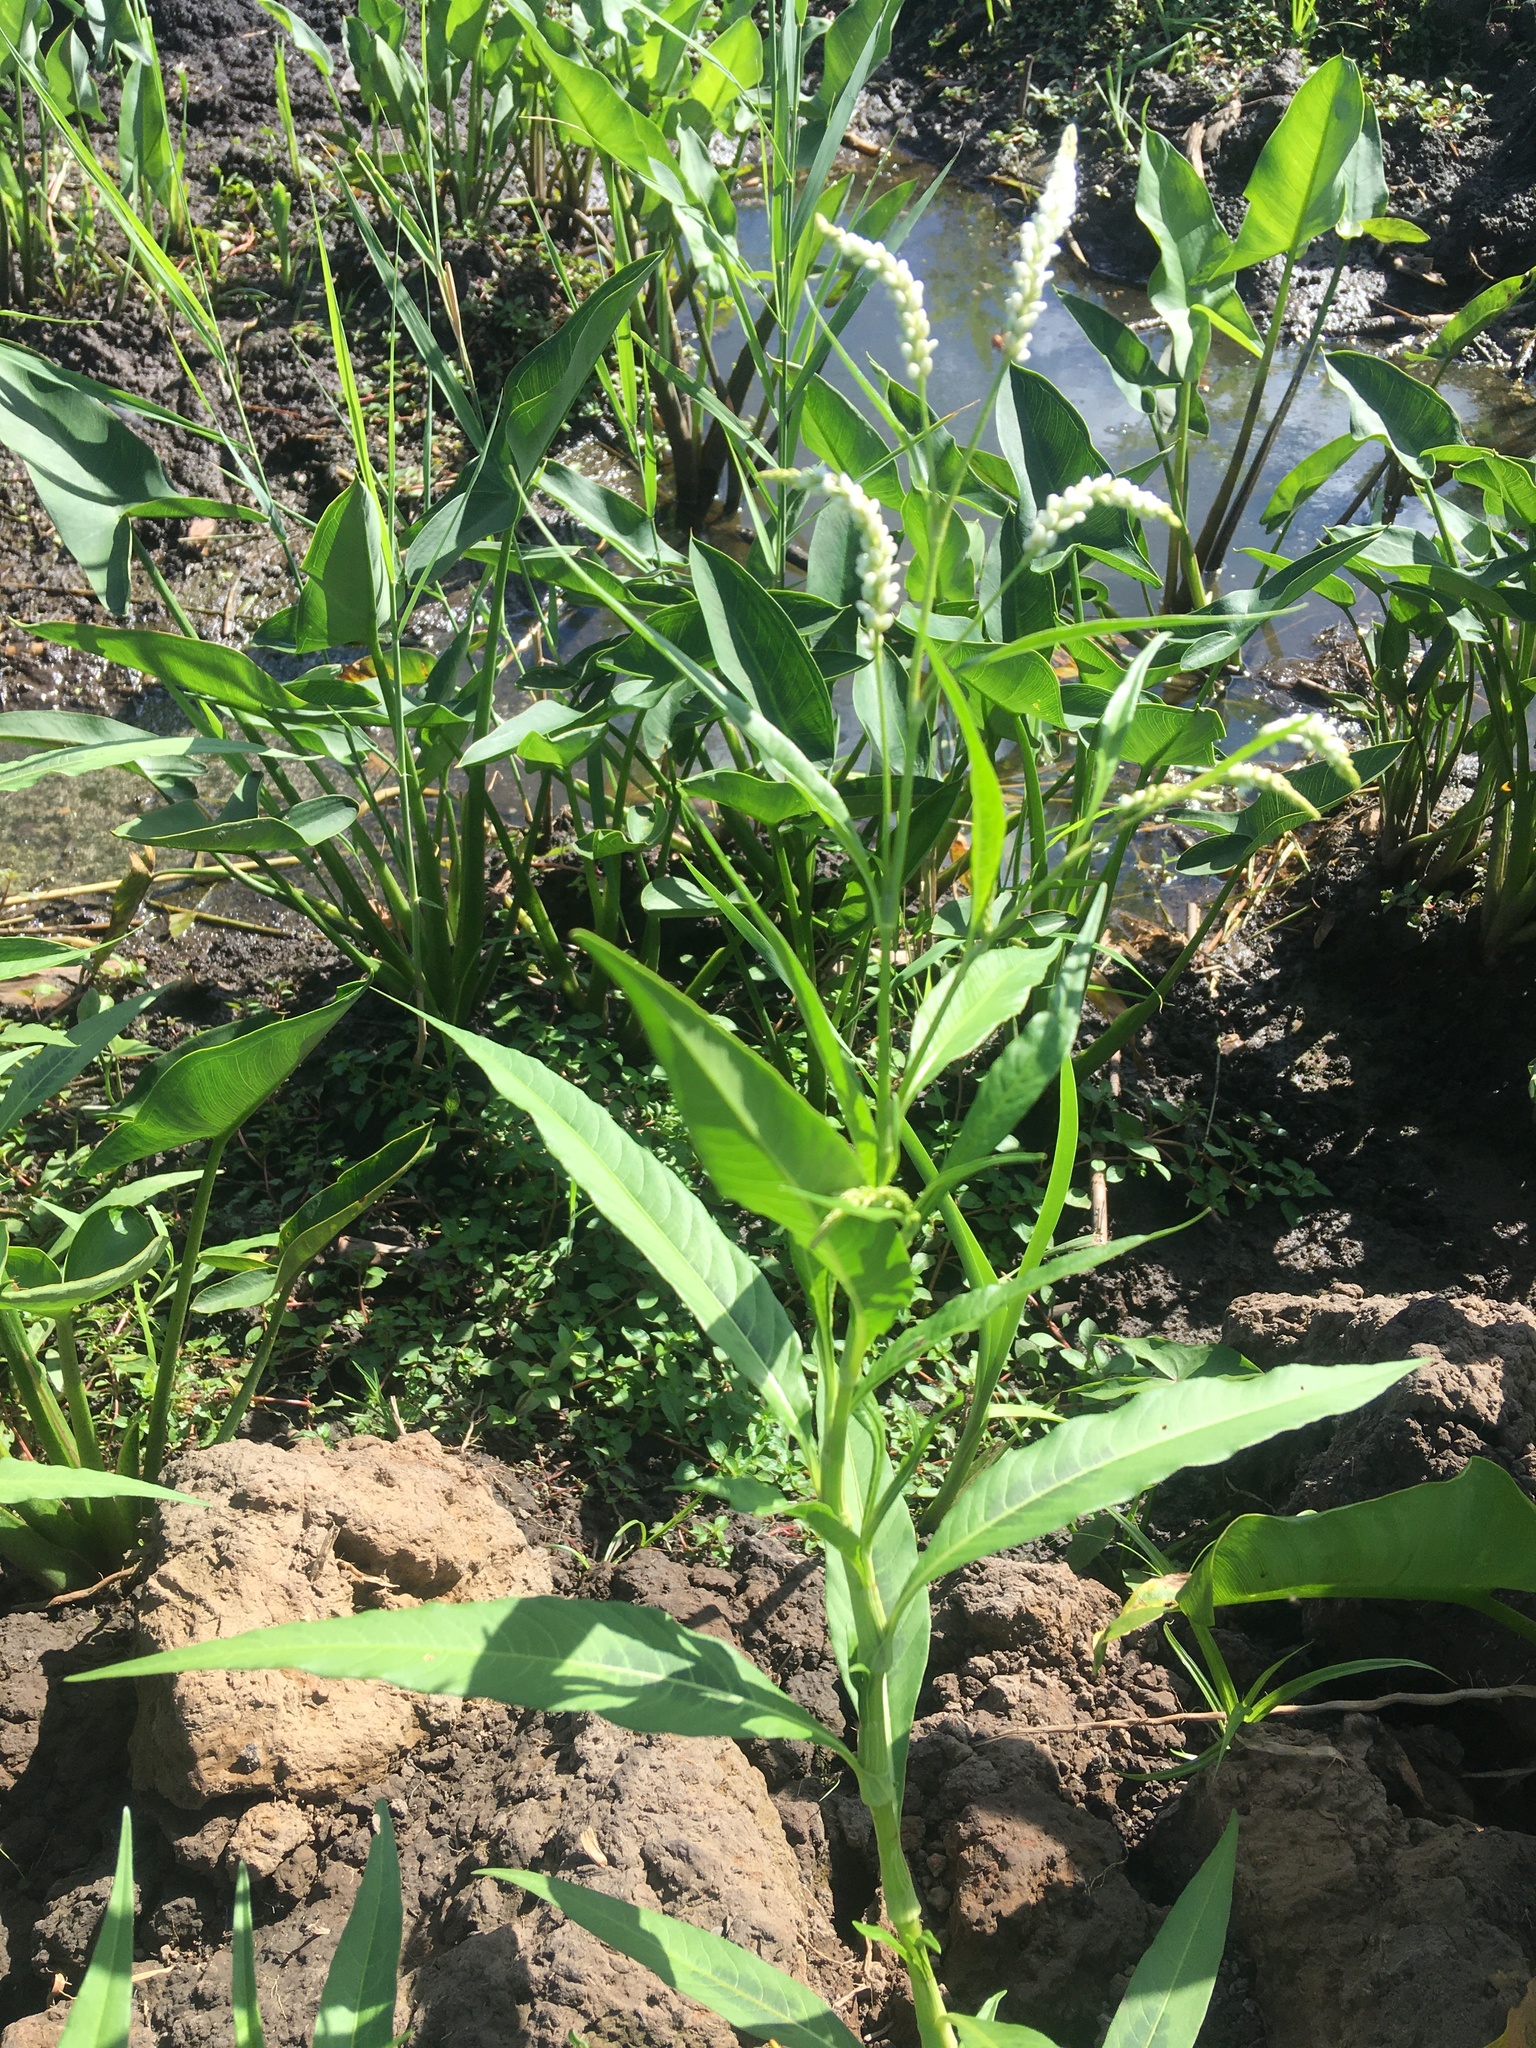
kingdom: Plantae
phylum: Tracheophyta
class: Magnoliopsida
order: Caryophyllales
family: Polygonaceae
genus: Persicaria
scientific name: Persicaria lapathifolia
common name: Curlytop knotweed
